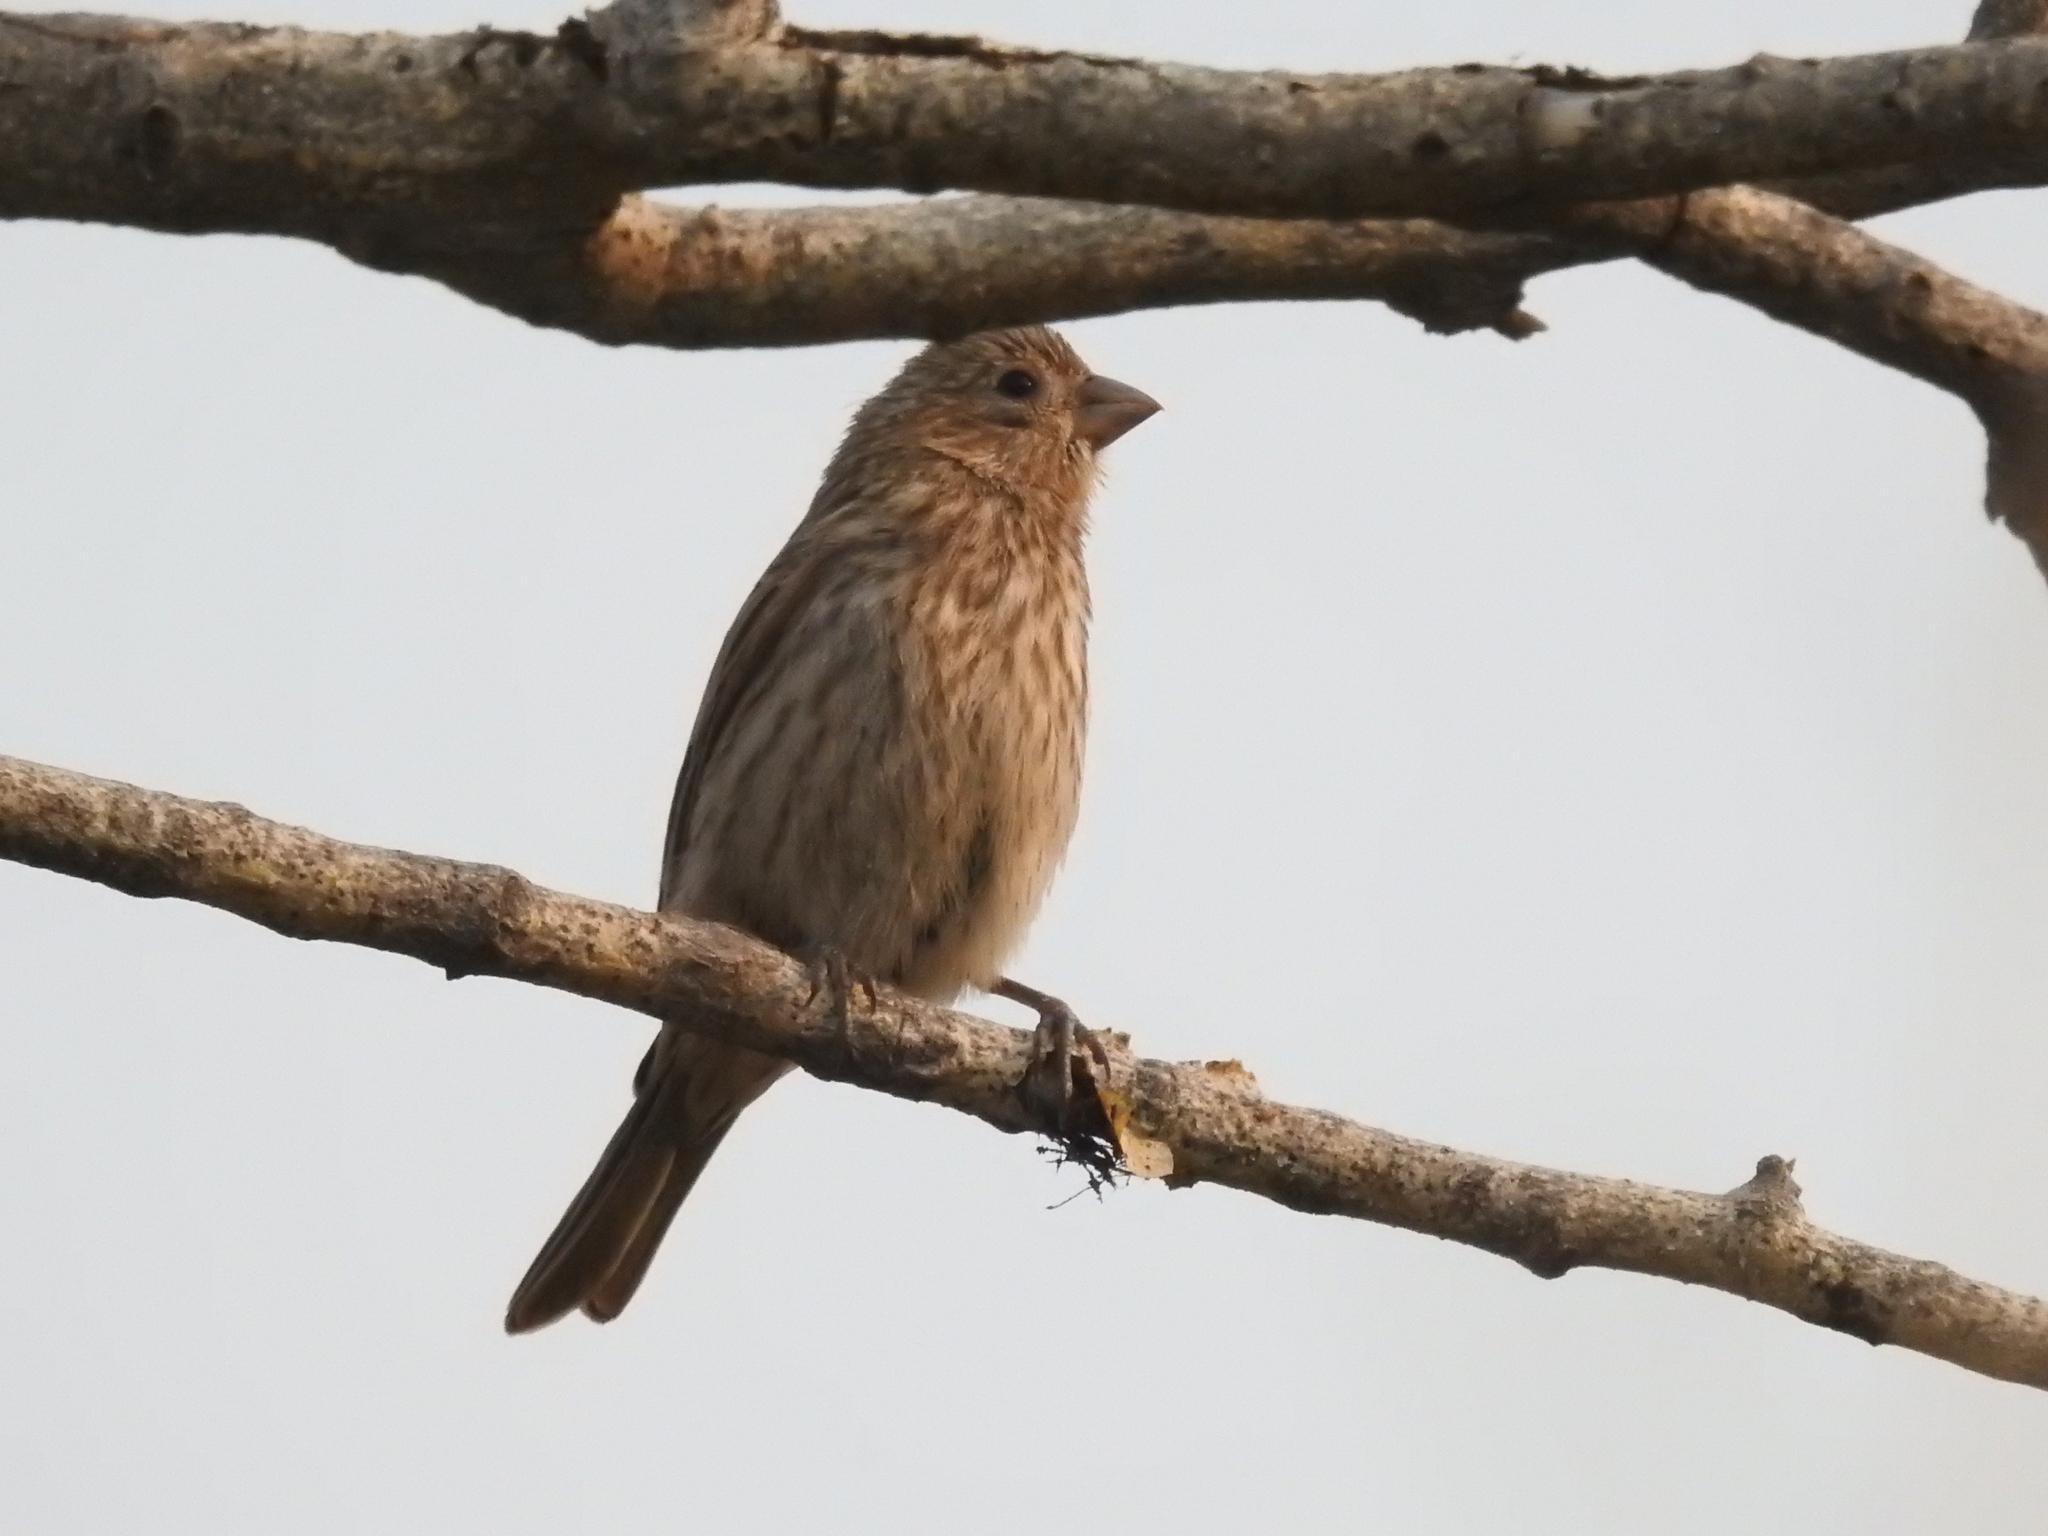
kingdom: Animalia
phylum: Chordata
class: Aves
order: Passeriformes
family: Fringillidae
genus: Haemorhous
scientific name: Haemorhous mexicanus
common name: House finch
